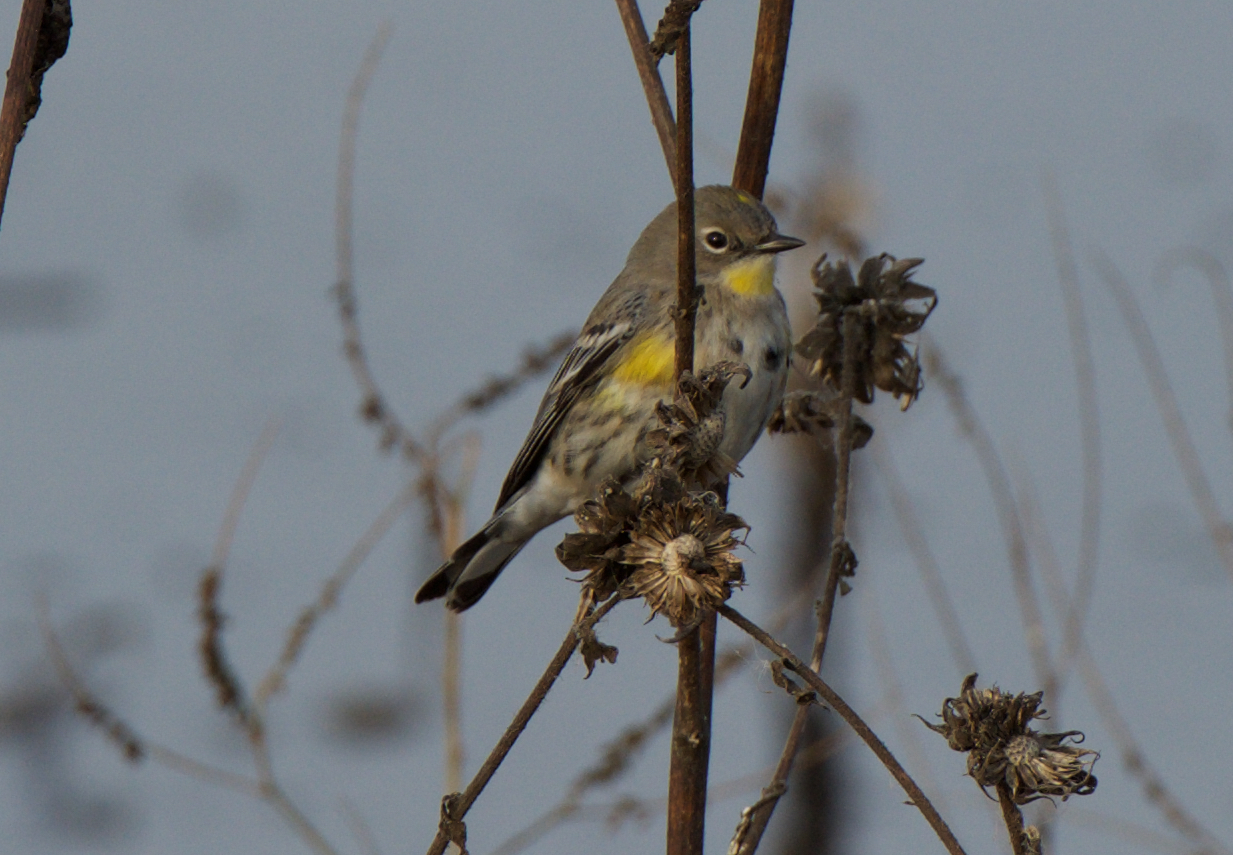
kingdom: Animalia
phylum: Chordata
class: Aves
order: Passeriformes
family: Parulidae
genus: Setophaga
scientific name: Setophaga coronata
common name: Myrtle warbler
